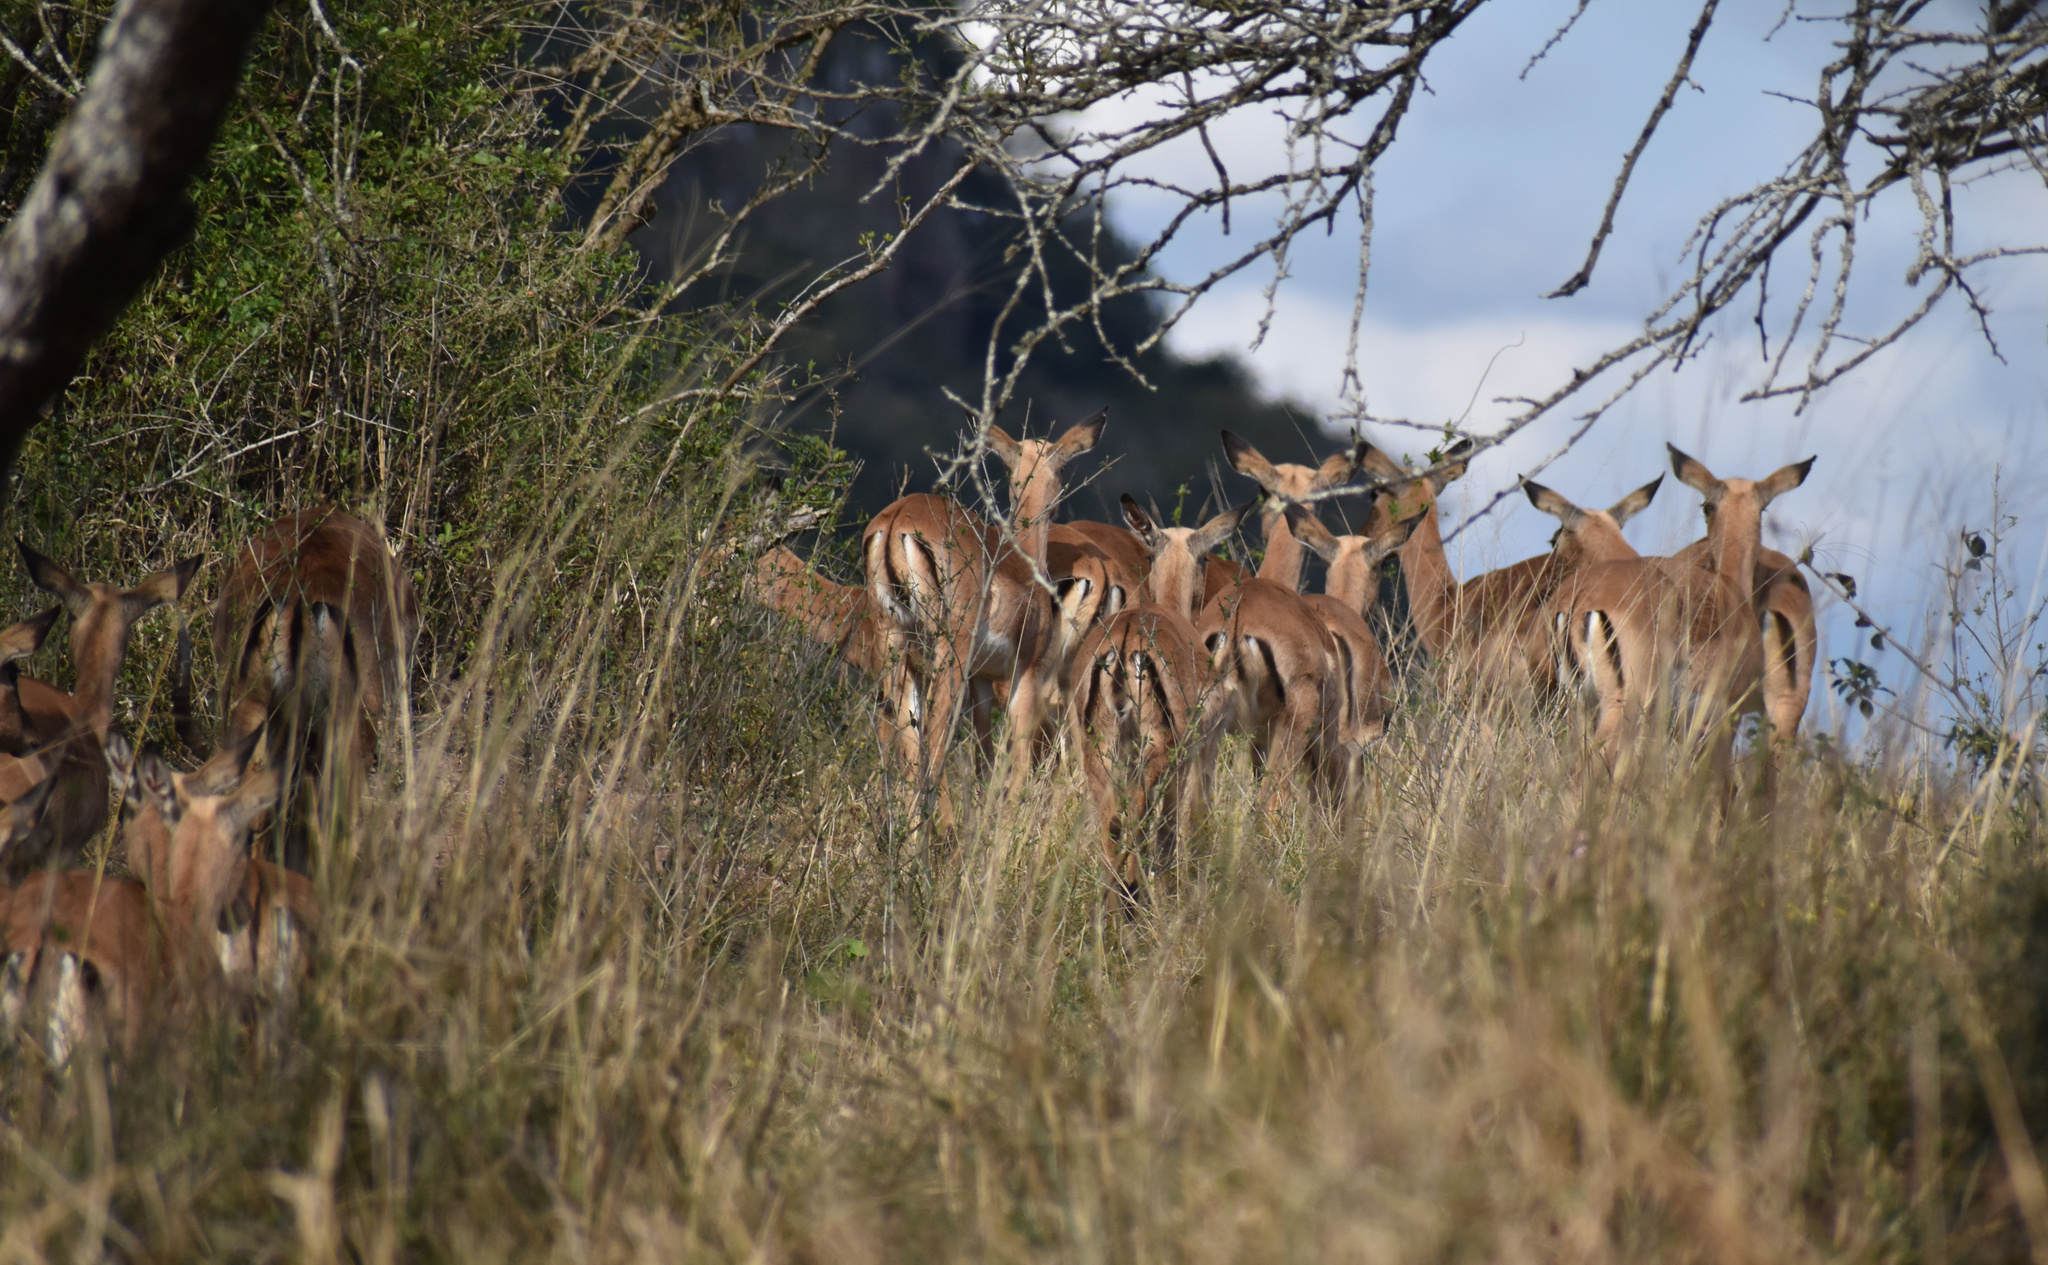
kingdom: Animalia
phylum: Chordata
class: Mammalia
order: Artiodactyla
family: Bovidae
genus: Aepyceros
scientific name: Aepyceros melampus
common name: Impala
